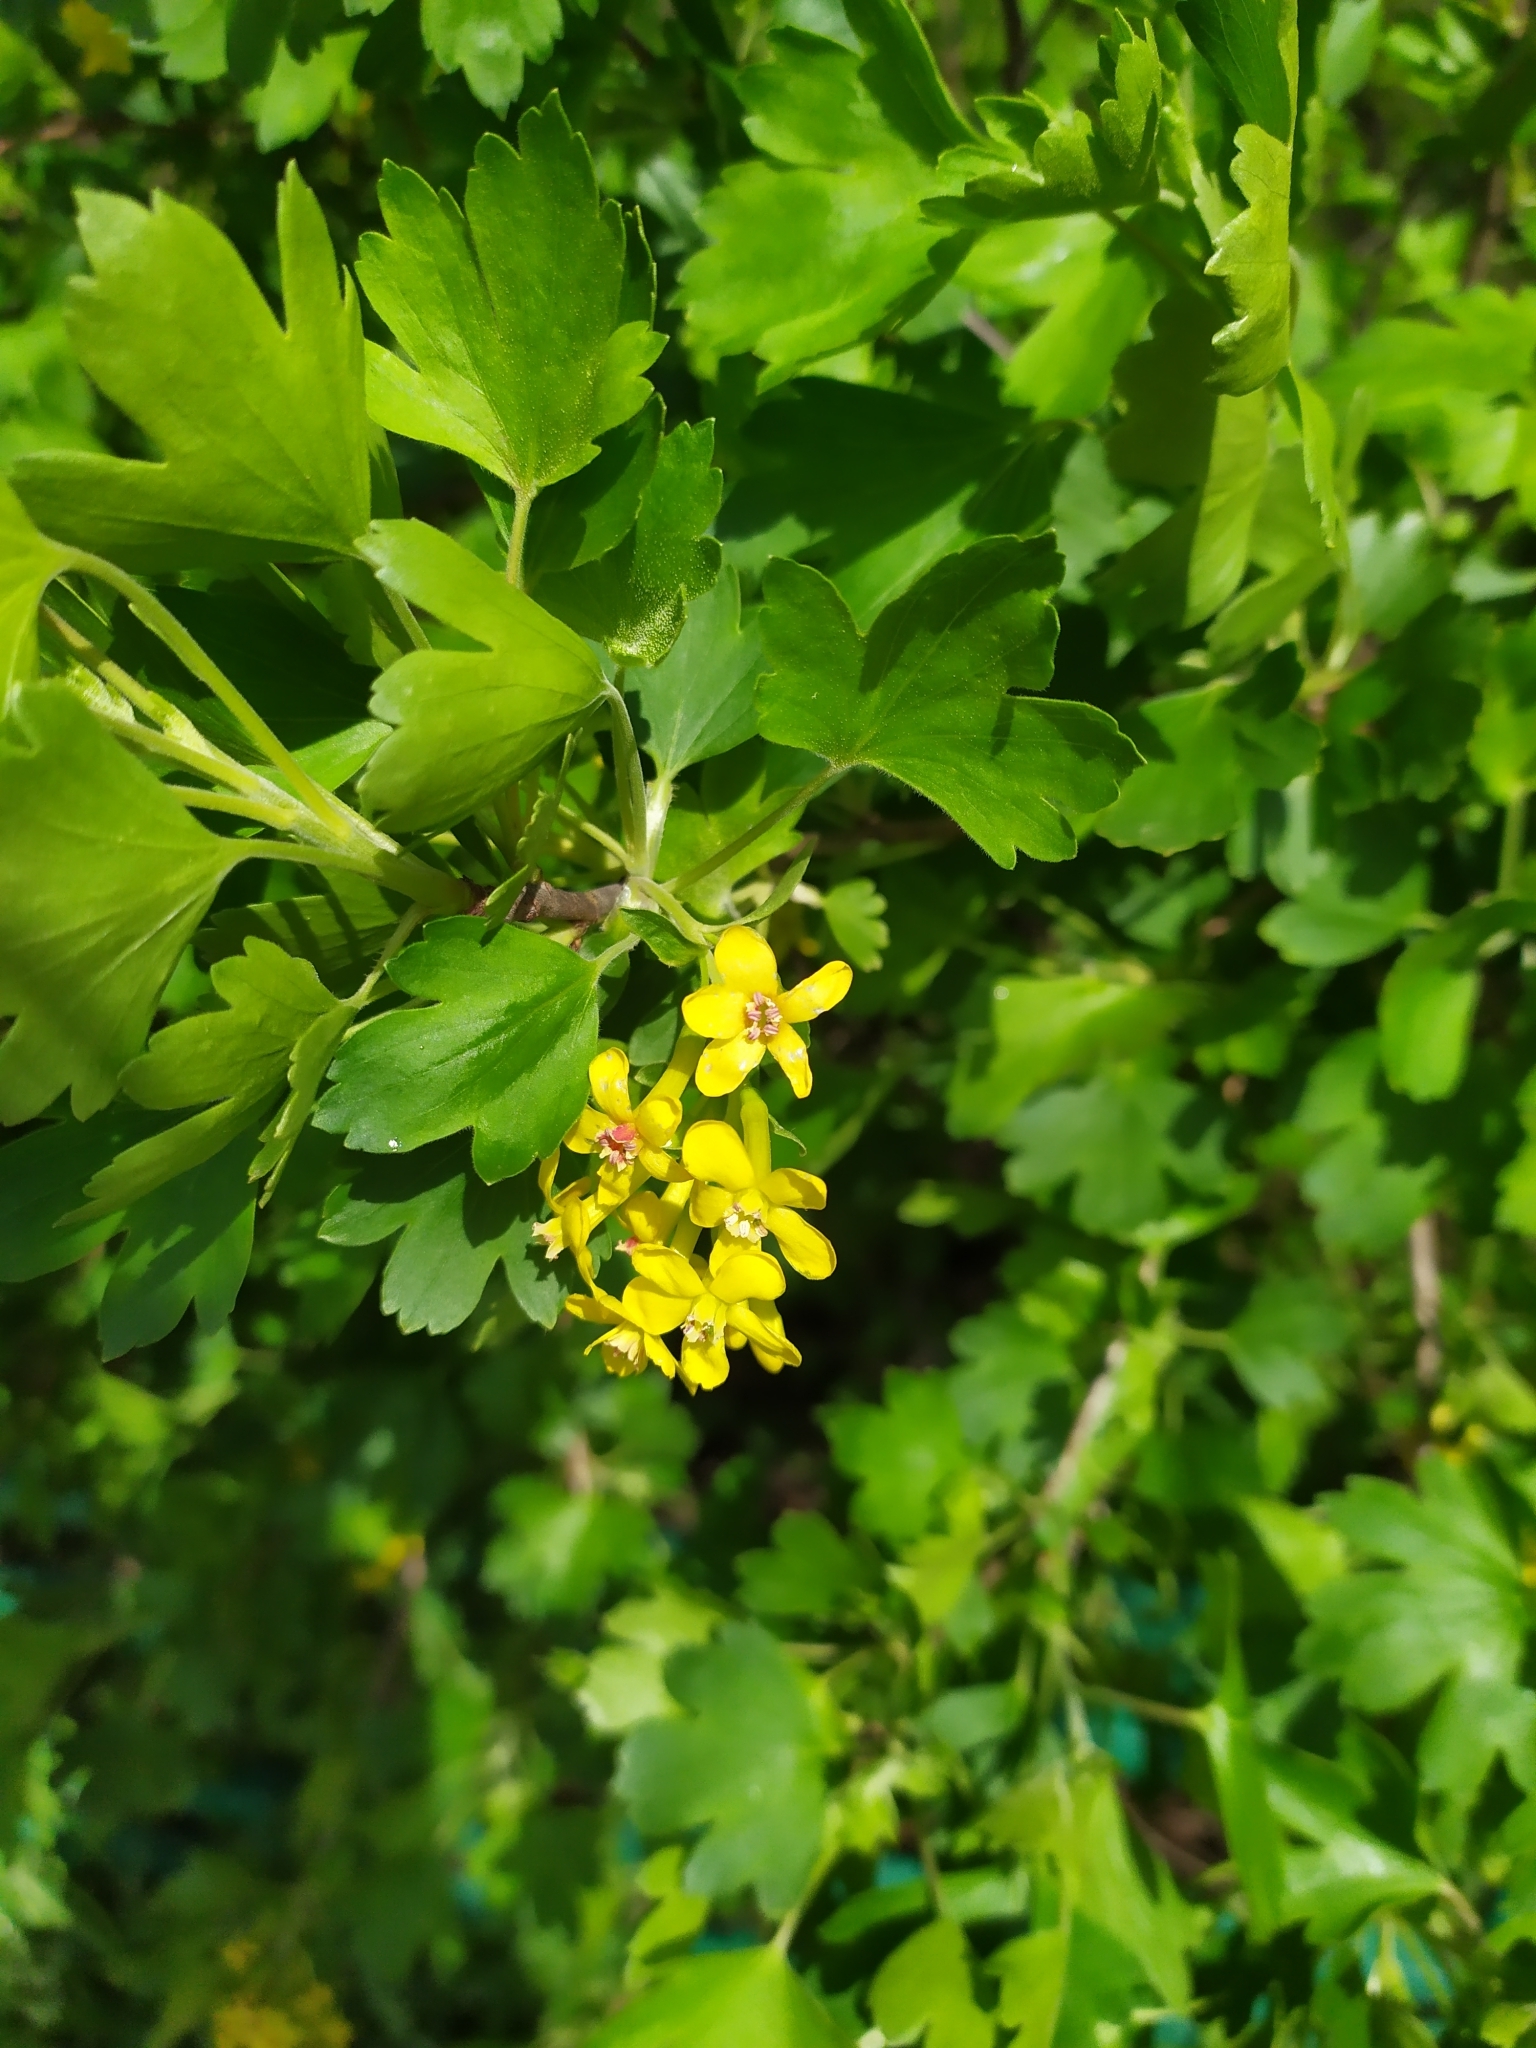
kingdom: Plantae
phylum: Tracheophyta
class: Magnoliopsida
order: Saxifragales
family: Grossulariaceae
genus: Ribes
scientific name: Ribes aureum
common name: Golden currant
